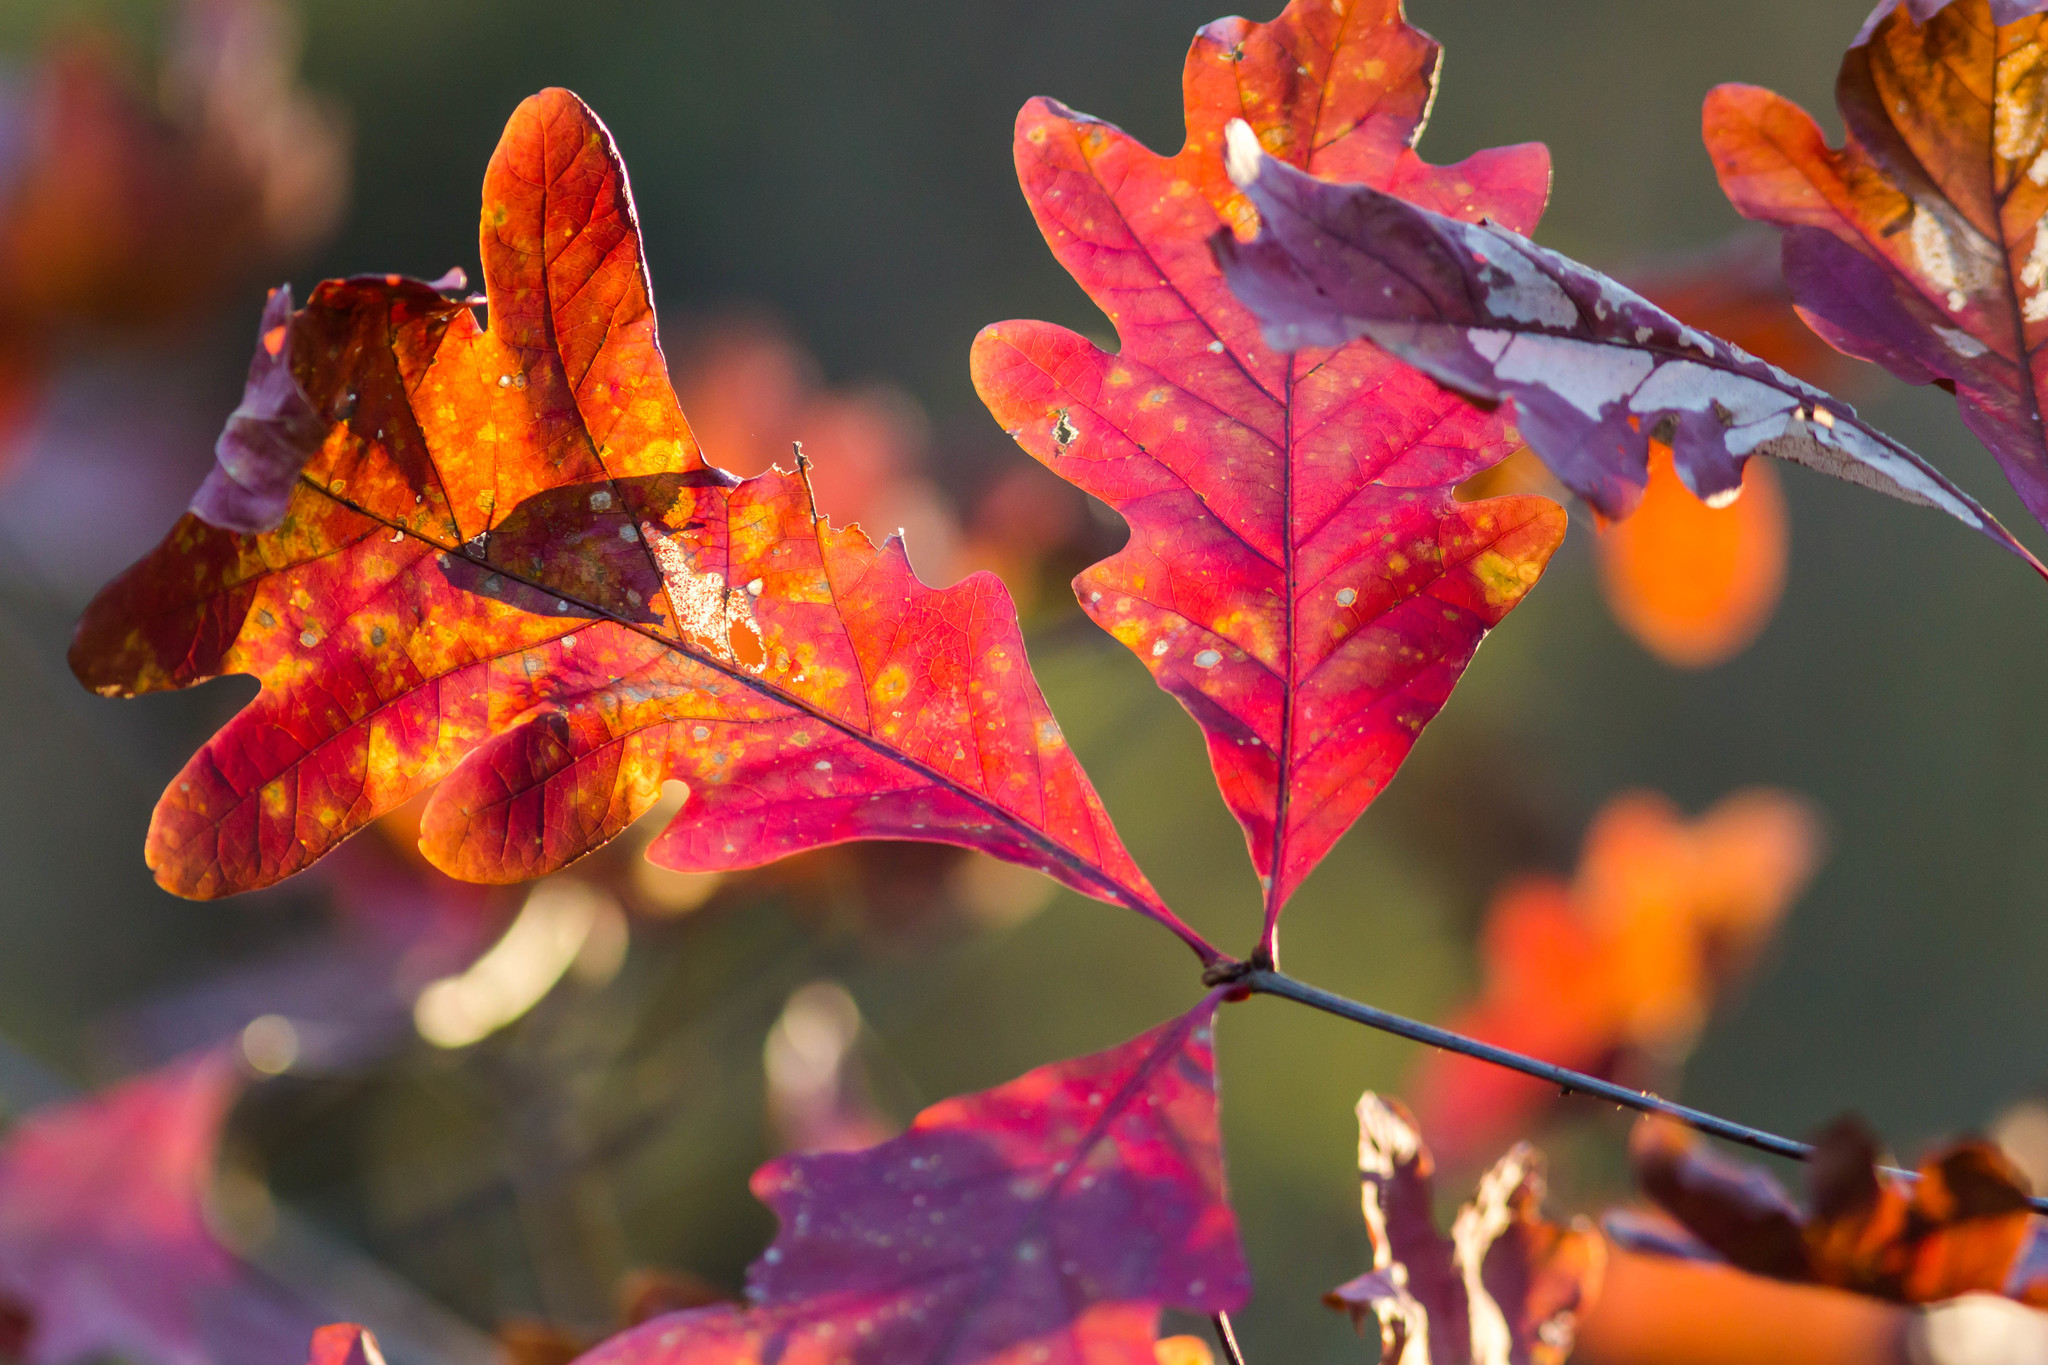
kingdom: Plantae
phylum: Tracheophyta
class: Magnoliopsida
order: Fagales
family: Fagaceae
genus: Quercus
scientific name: Quercus alba
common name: White oak
